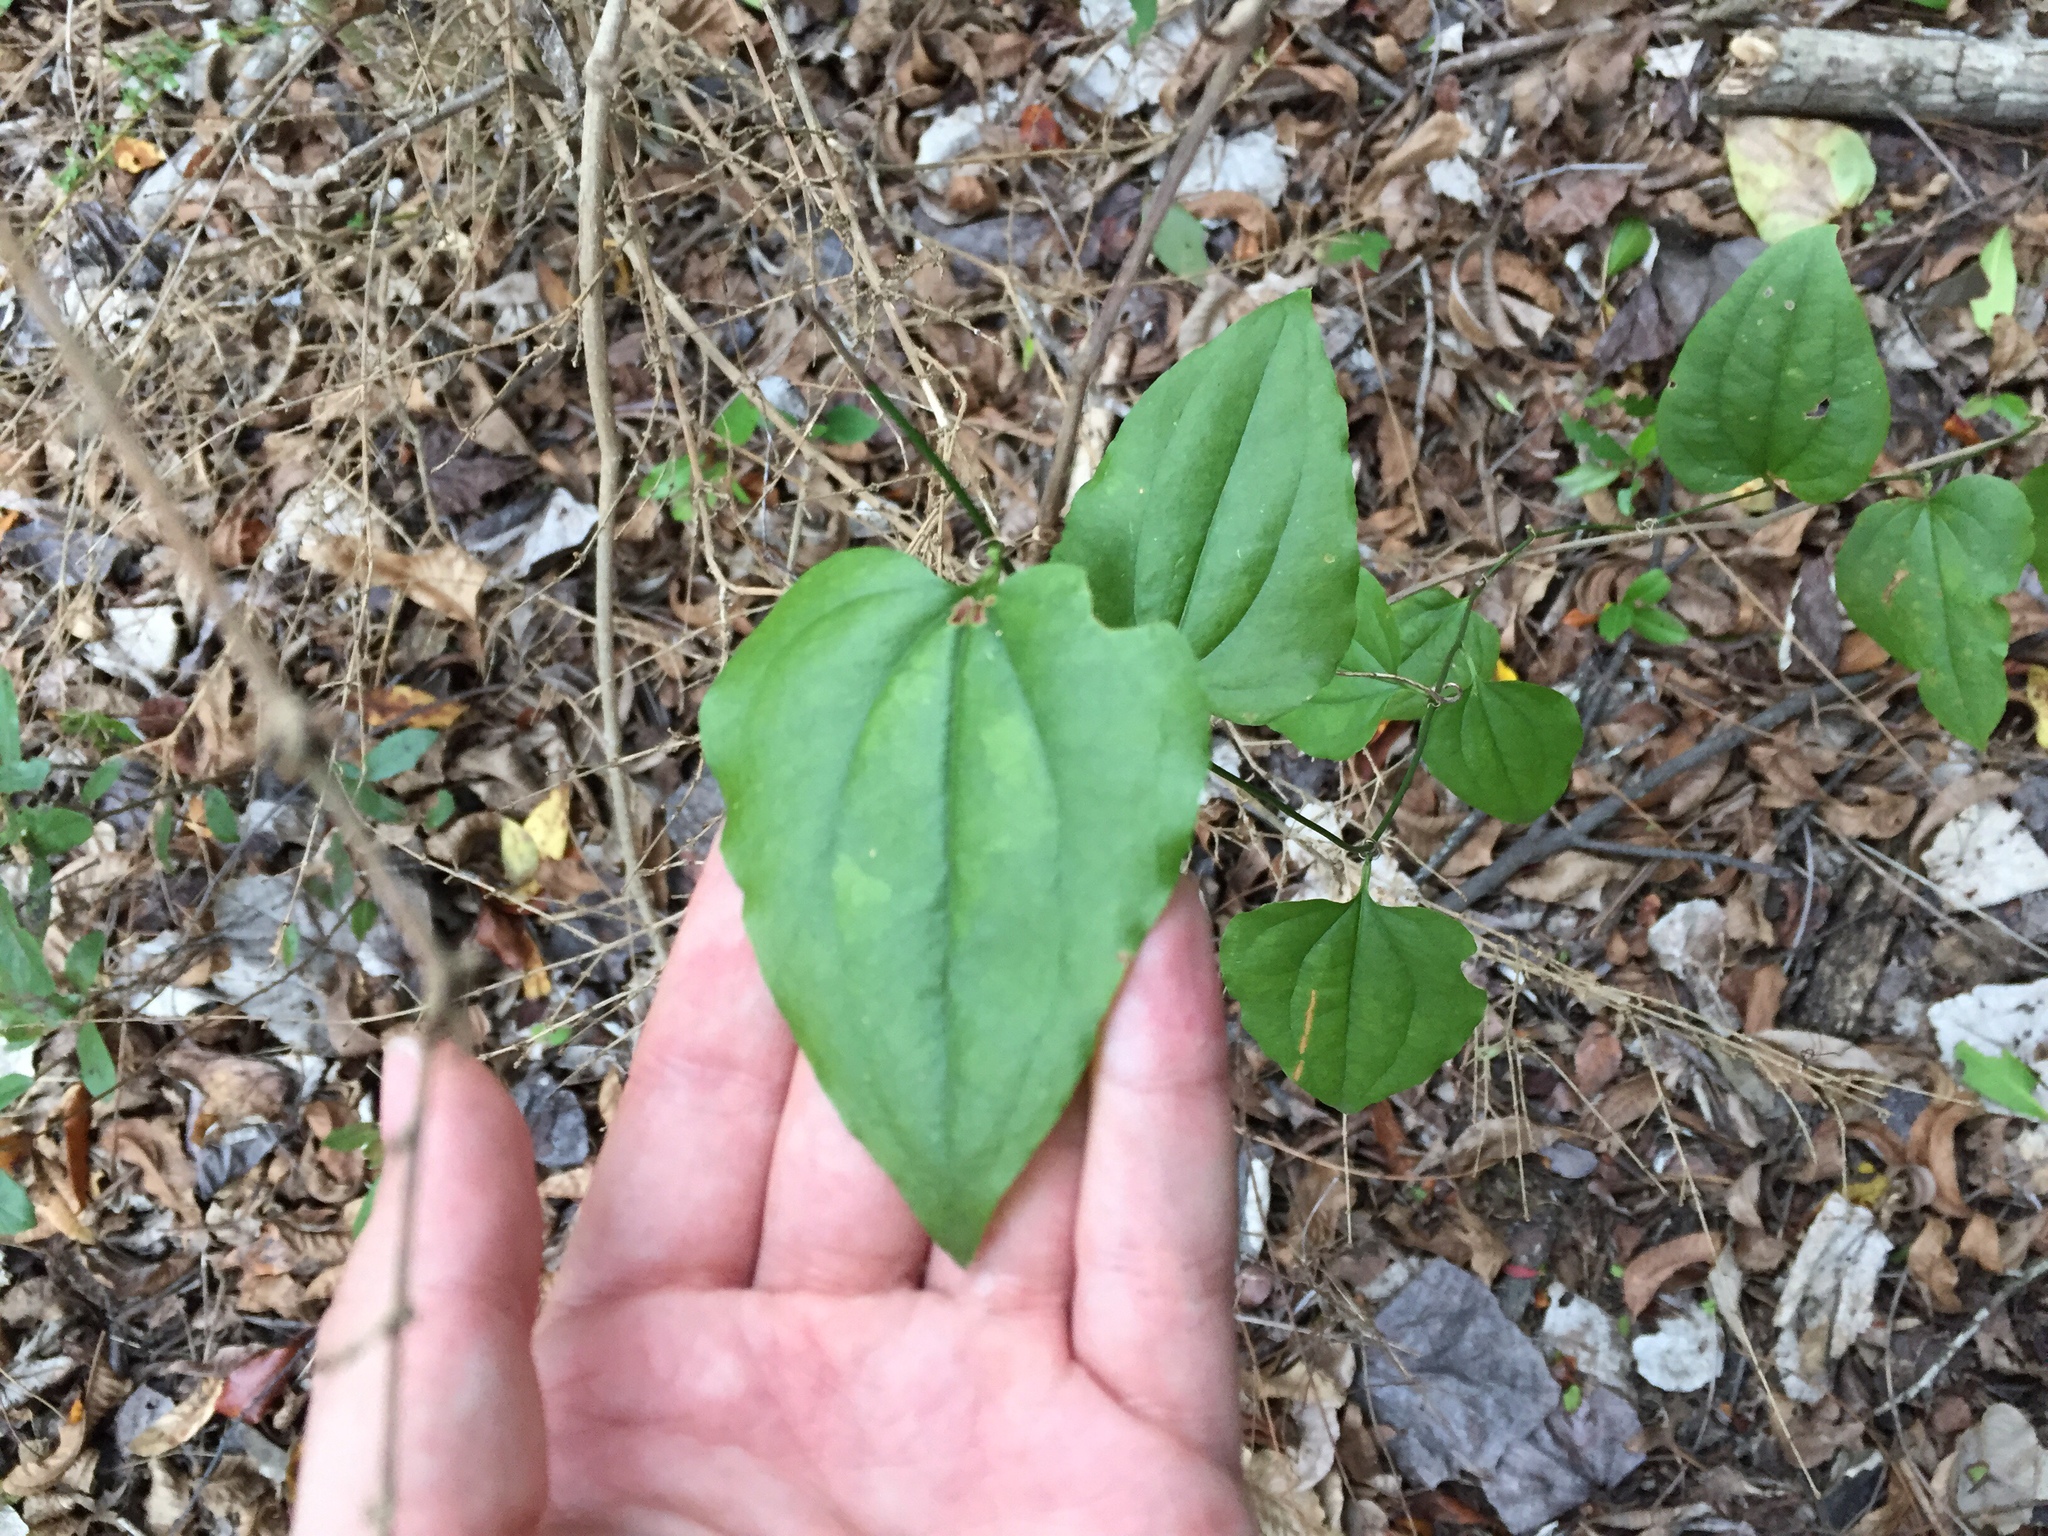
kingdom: Plantae
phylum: Tracheophyta
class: Liliopsida
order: Liliales
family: Smilacaceae
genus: Smilax
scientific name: Smilax tamnoides
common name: Hellfetter
